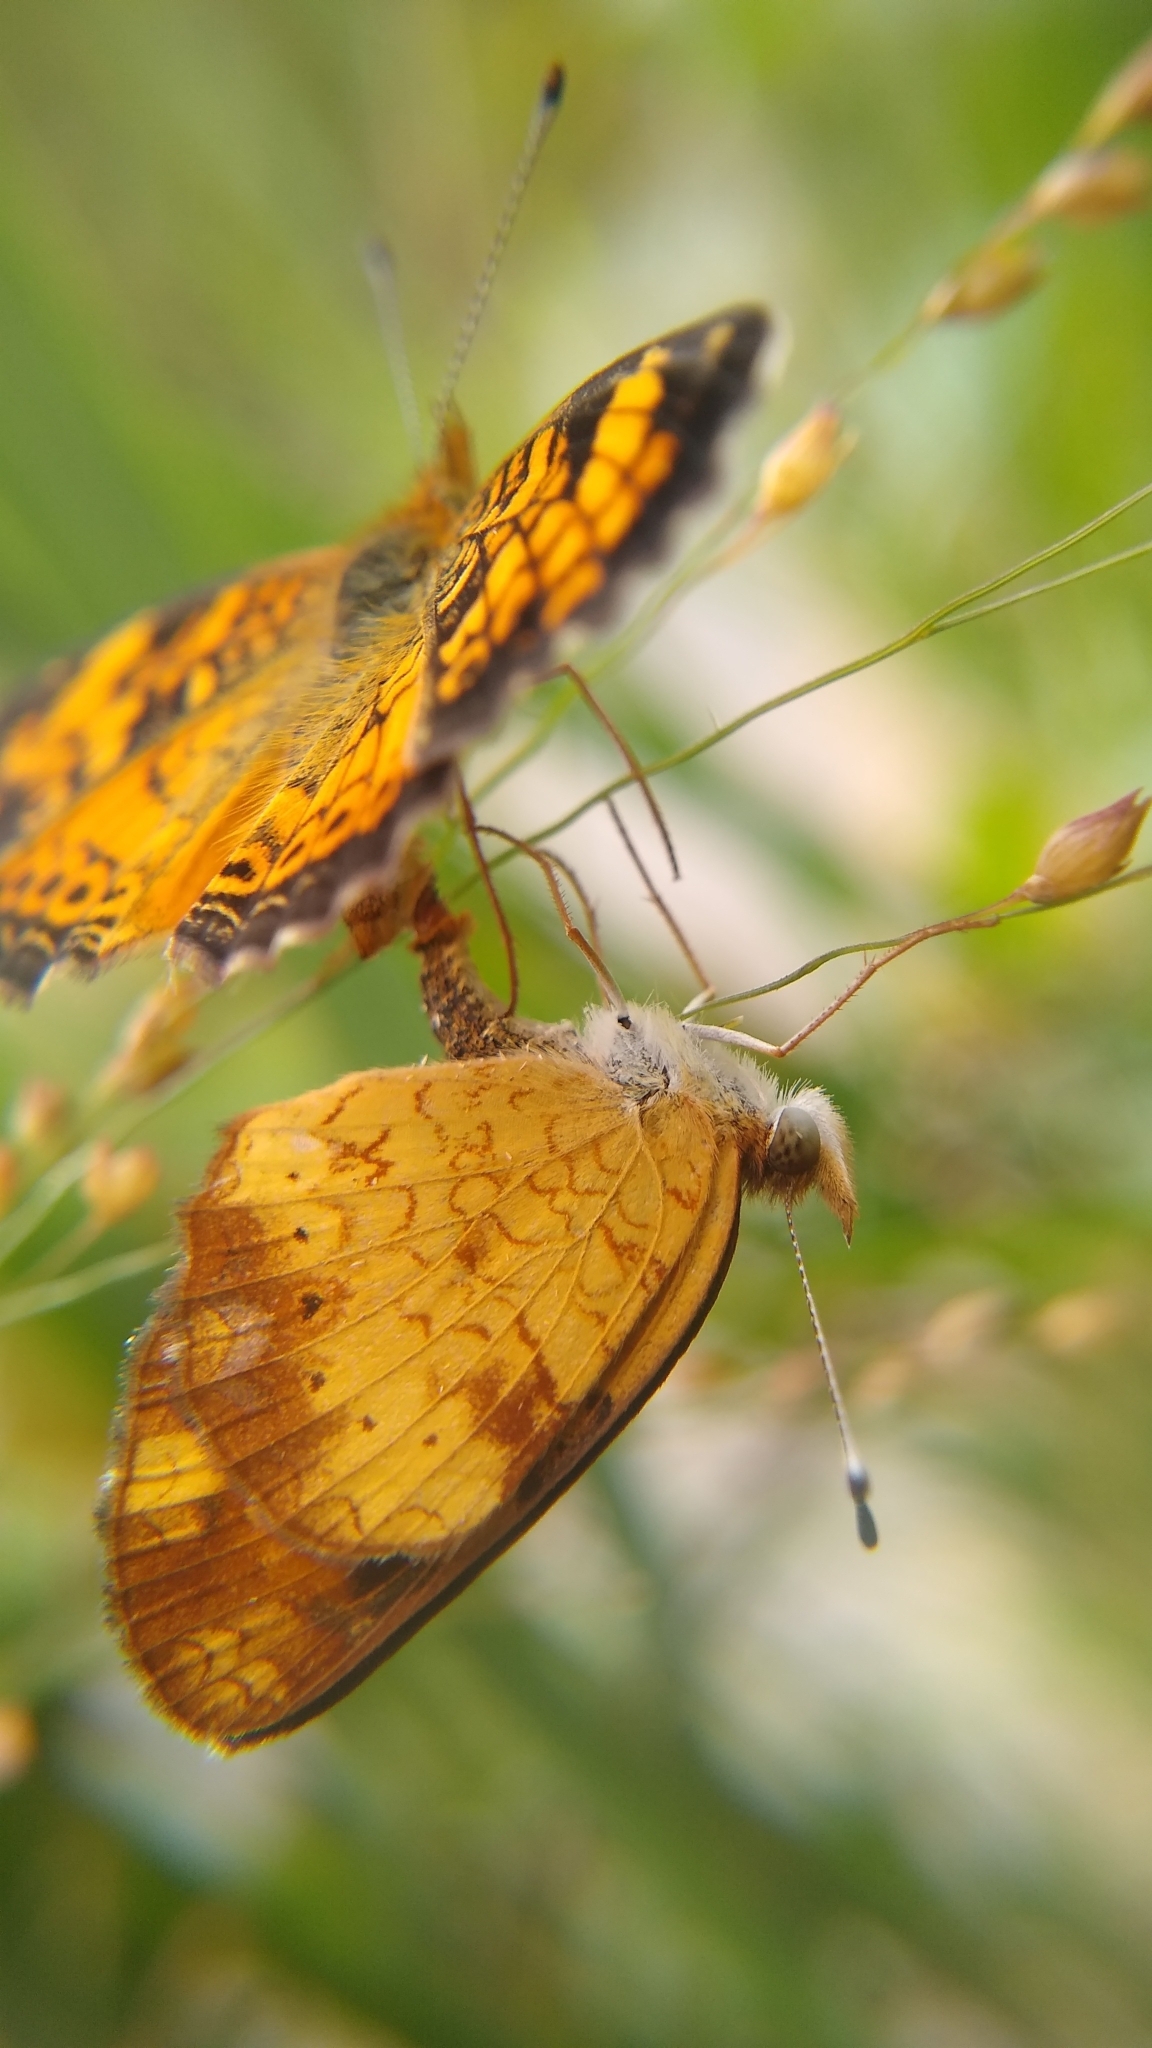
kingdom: Animalia
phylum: Arthropoda
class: Insecta
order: Lepidoptera
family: Nymphalidae
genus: Phyciodes
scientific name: Phyciodes tharos
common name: Pearl crescent
